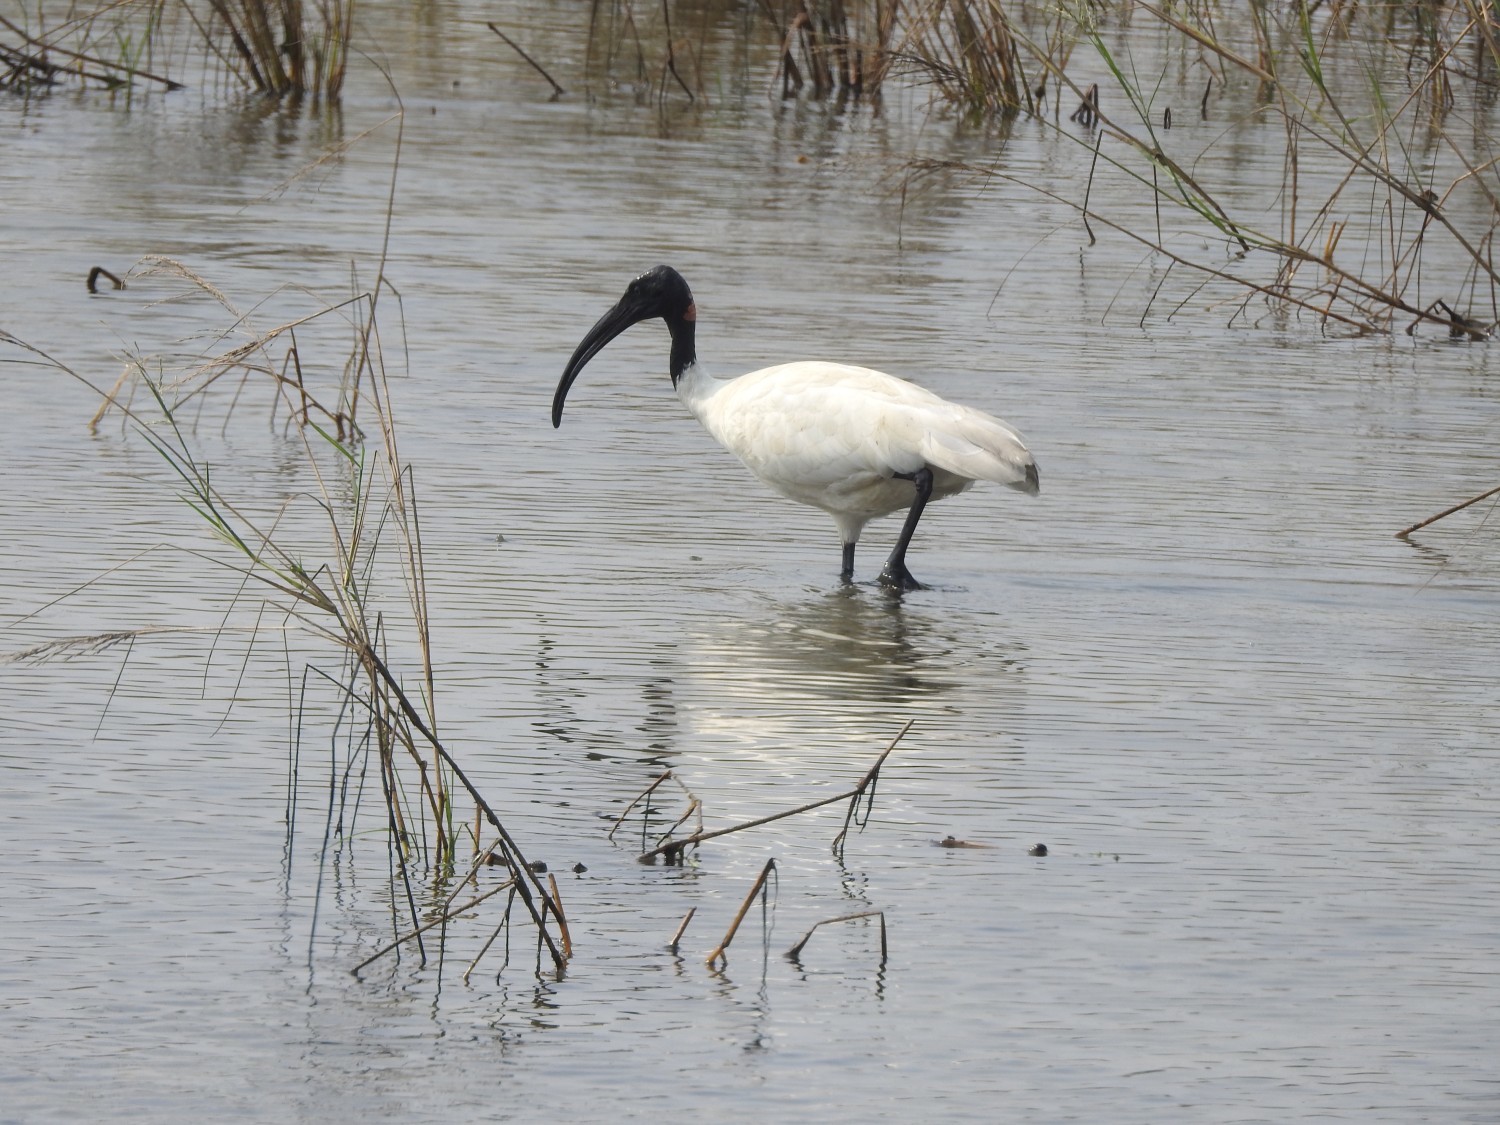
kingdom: Animalia
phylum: Chordata
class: Aves
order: Pelecaniformes
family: Threskiornithidae
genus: Threskiornis
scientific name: Threskiornis melanocephalus
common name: Black-headed ibis
